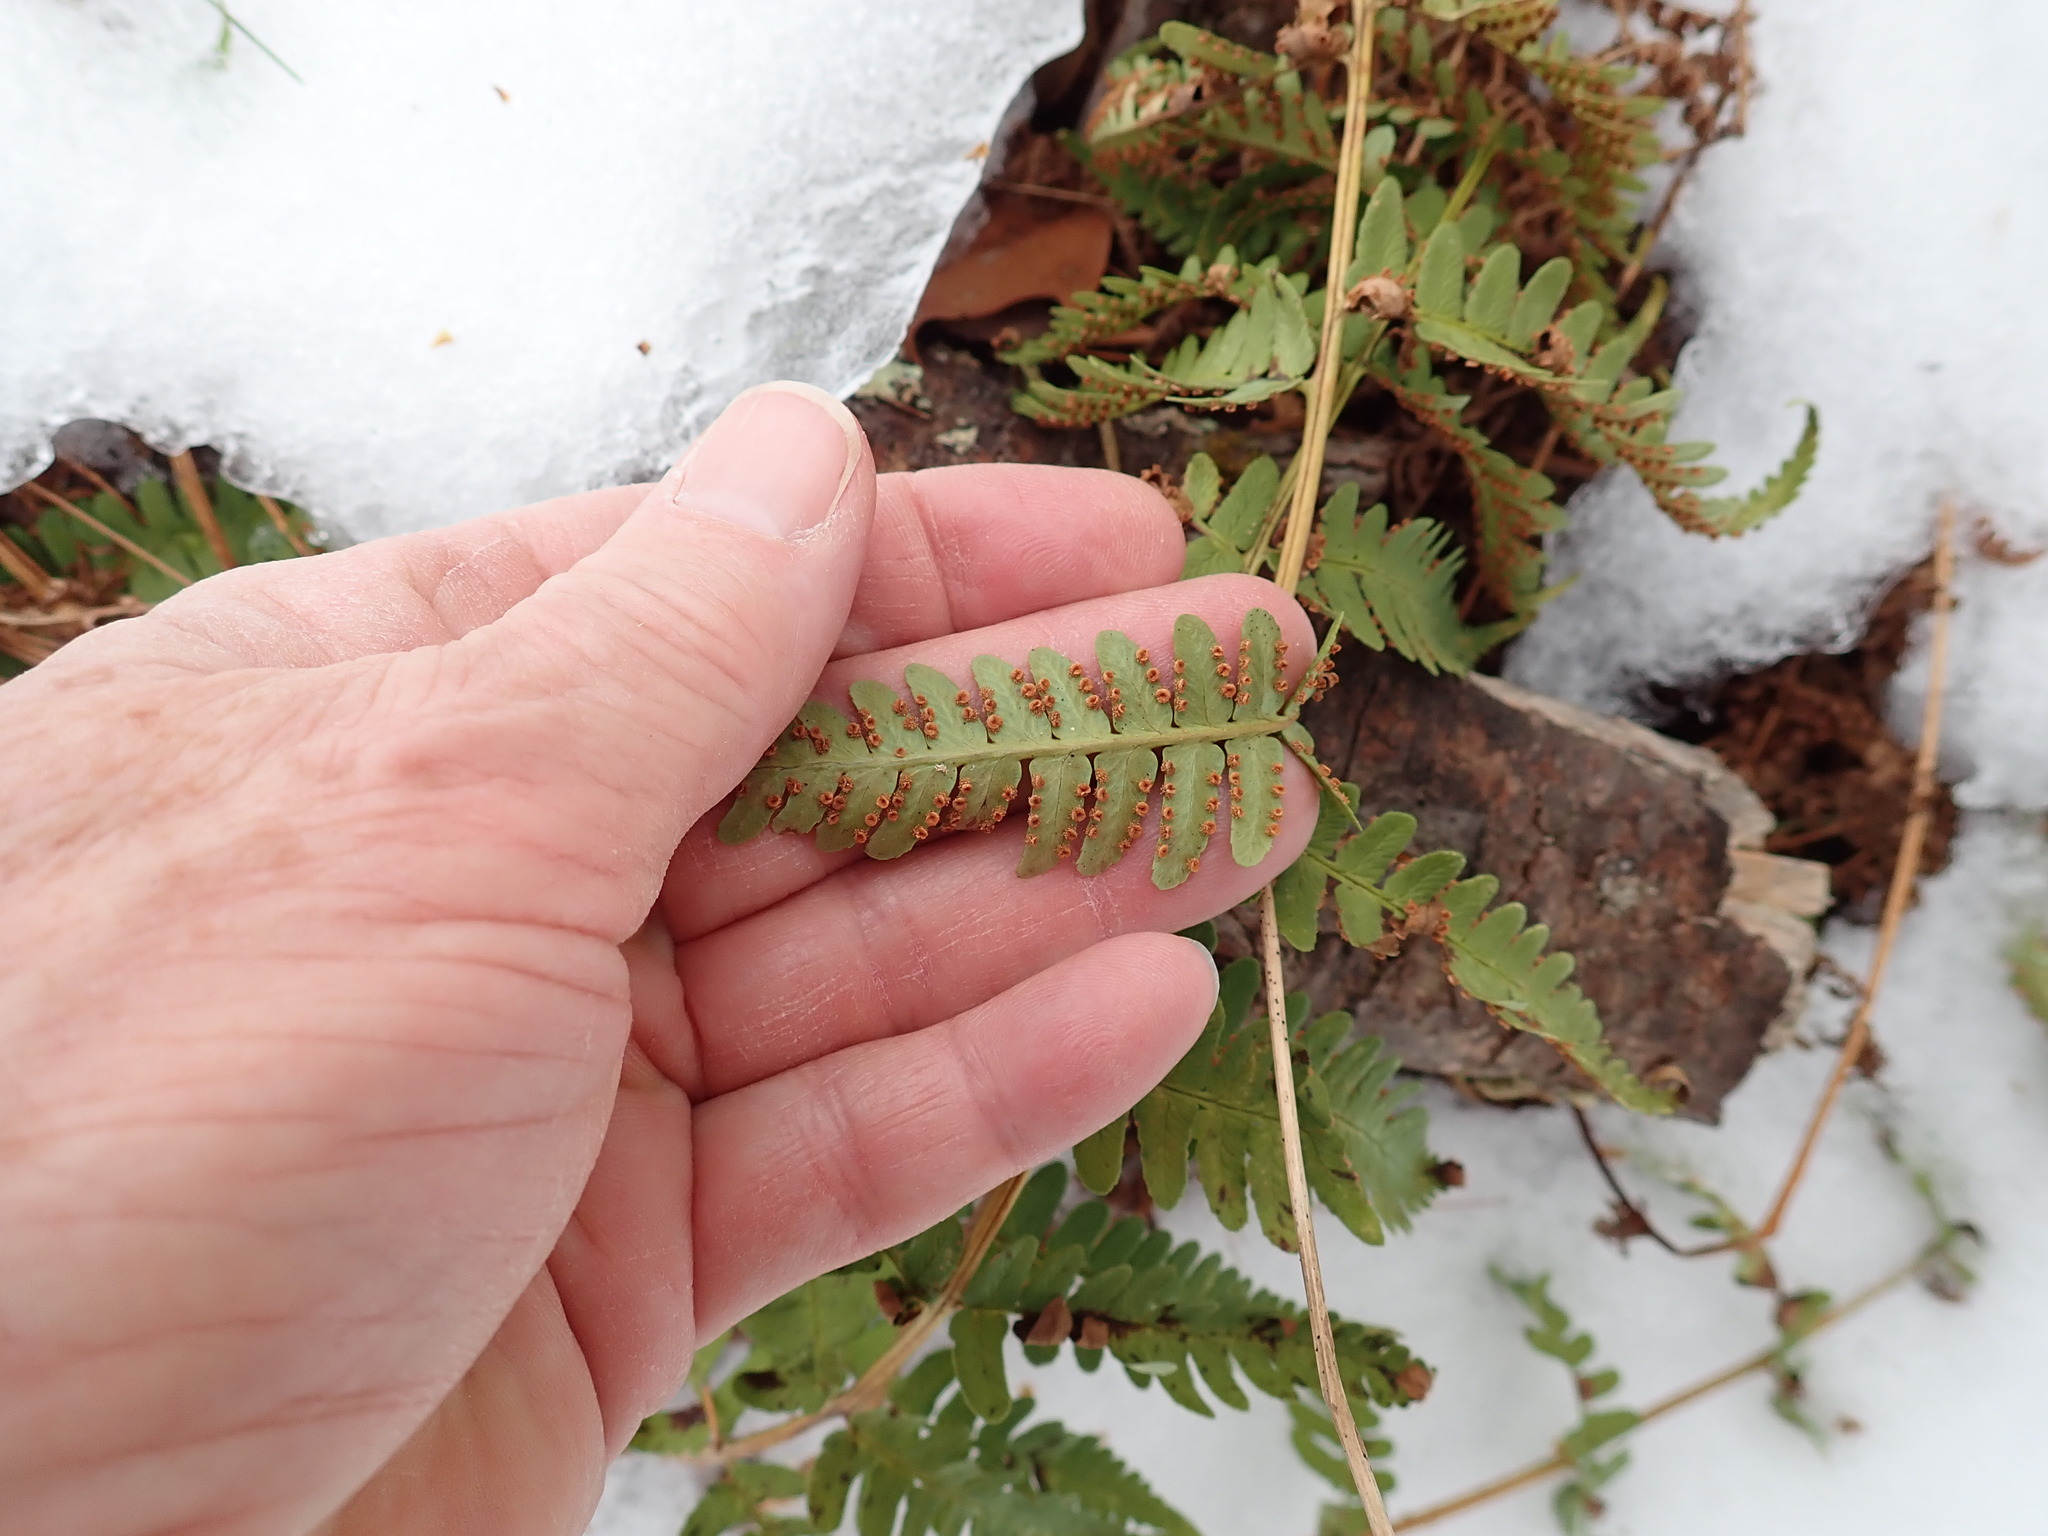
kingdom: Plantae
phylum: Tracheophyta
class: Polypodiopsida
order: Polypodiales
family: Dryopteridaceae
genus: Dryopteris
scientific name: Dryopteris marginalis
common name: Marginal wood fern
